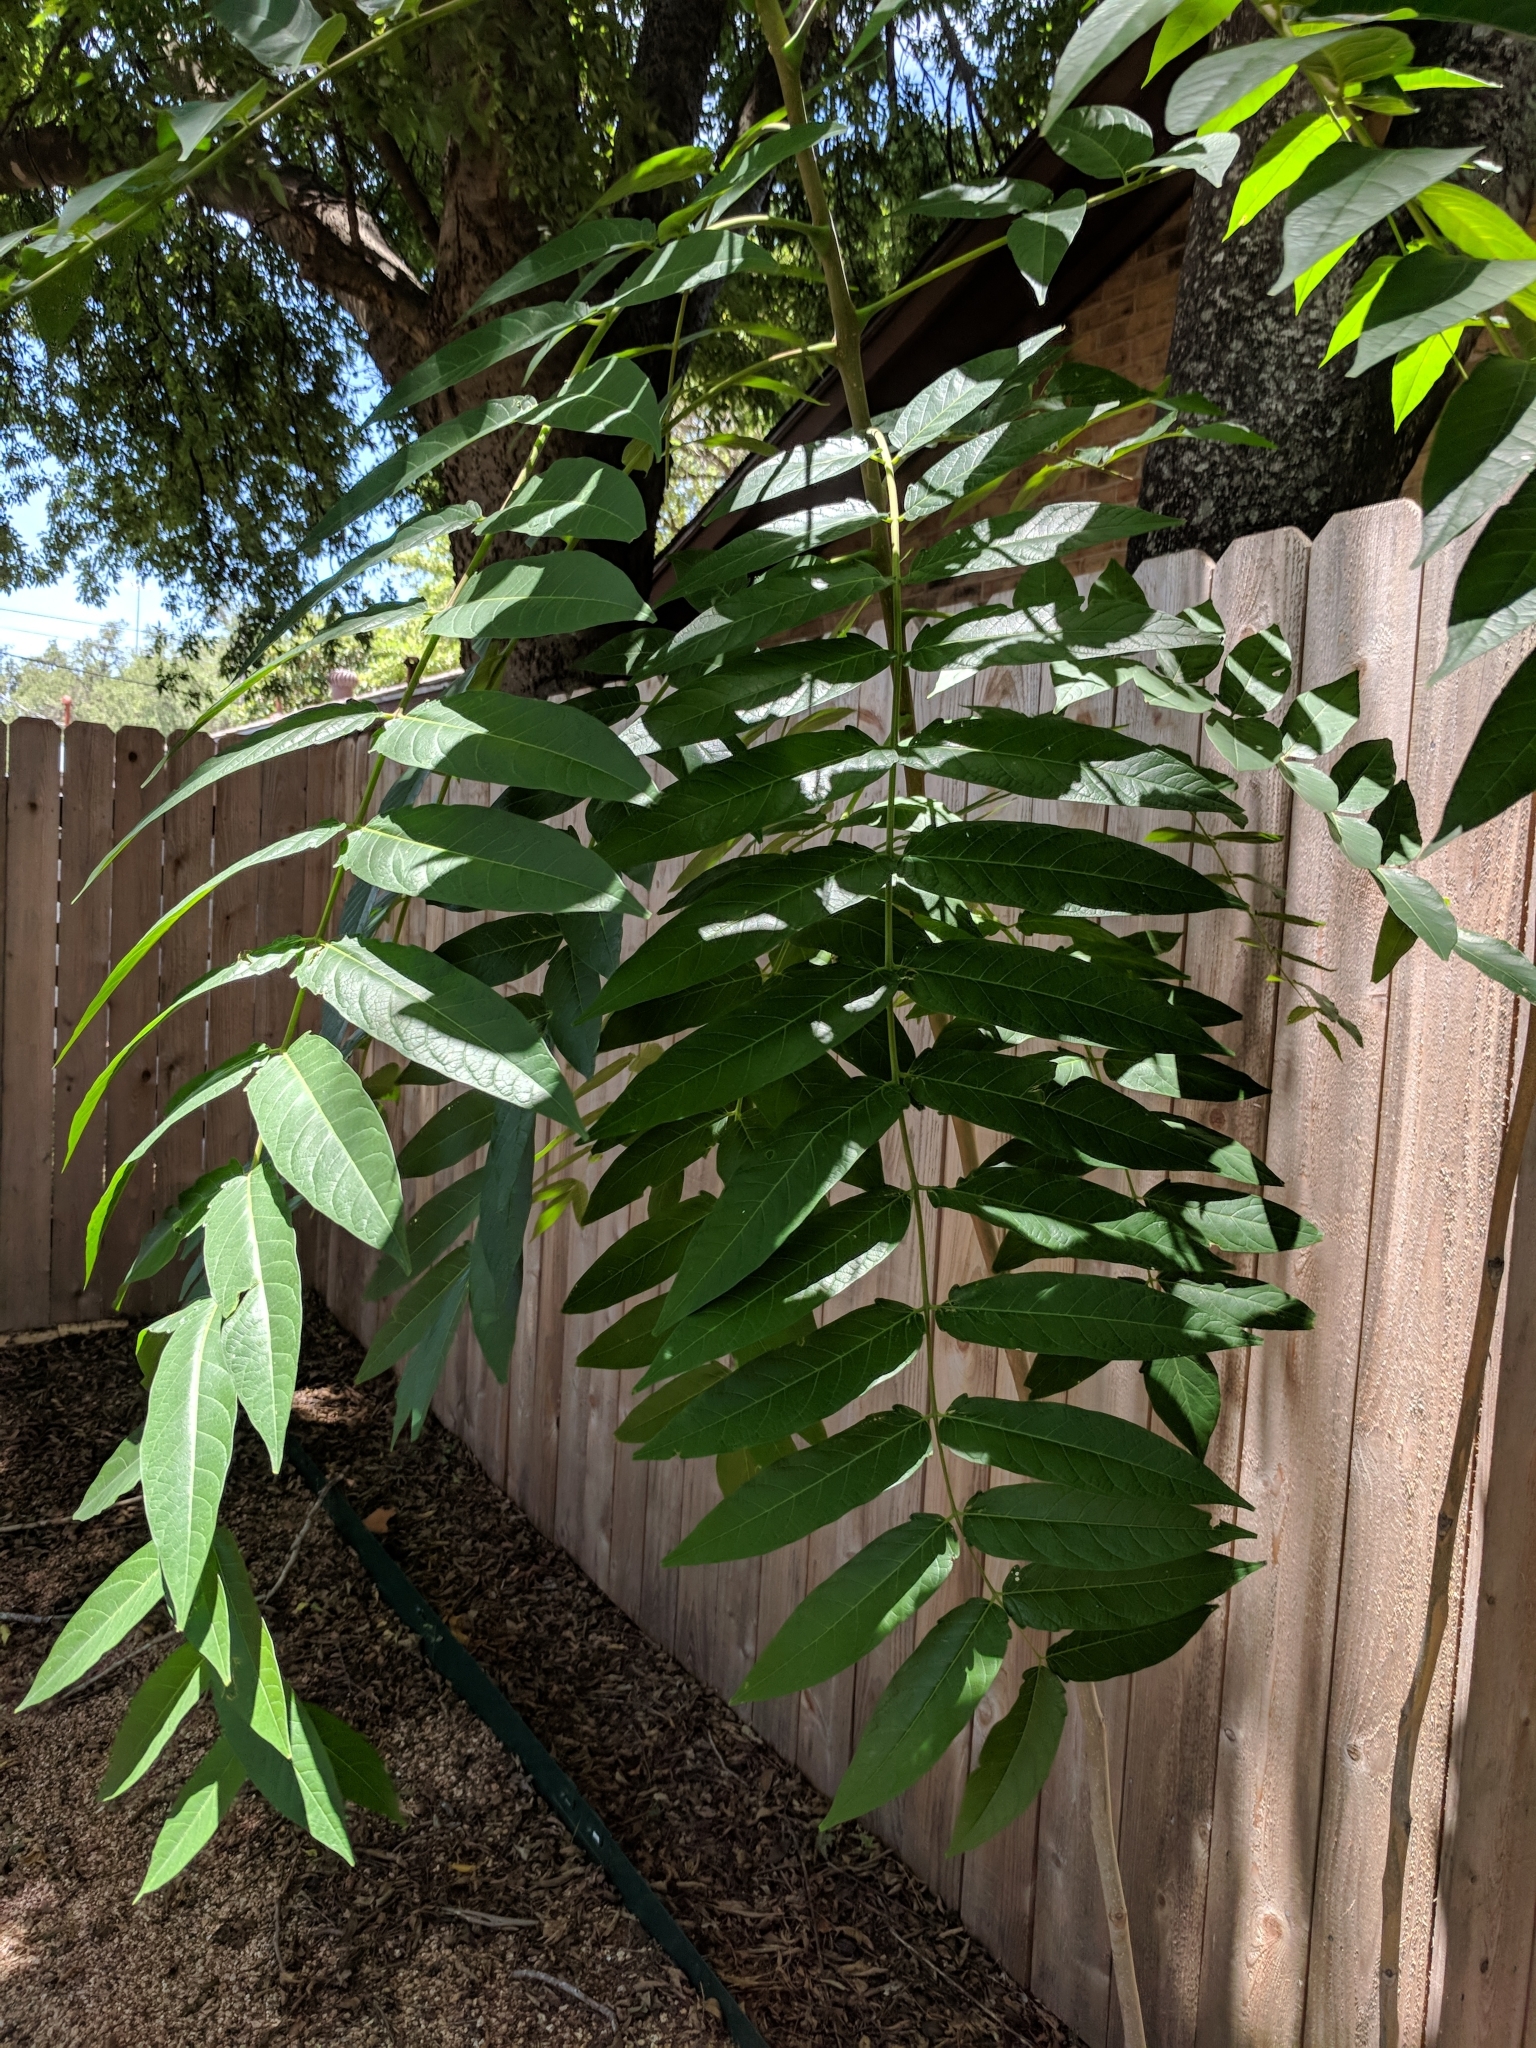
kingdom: Plantae
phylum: Tracheophyta
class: Magnoliopsida
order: Sapindales
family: Simaroubaceae
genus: Ailanthus
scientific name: Ailanthus altissima
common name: Tree-of-heaven
